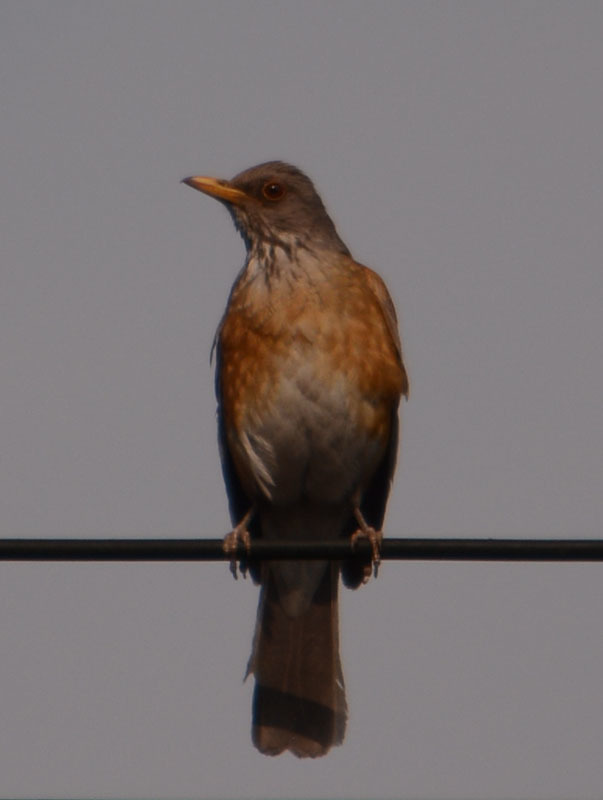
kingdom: Animalia
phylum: Chordata
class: Aves
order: Passeriformes
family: Turdidae
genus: Turdus
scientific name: Turdus rufopalliatus
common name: Rufous-backed robin
